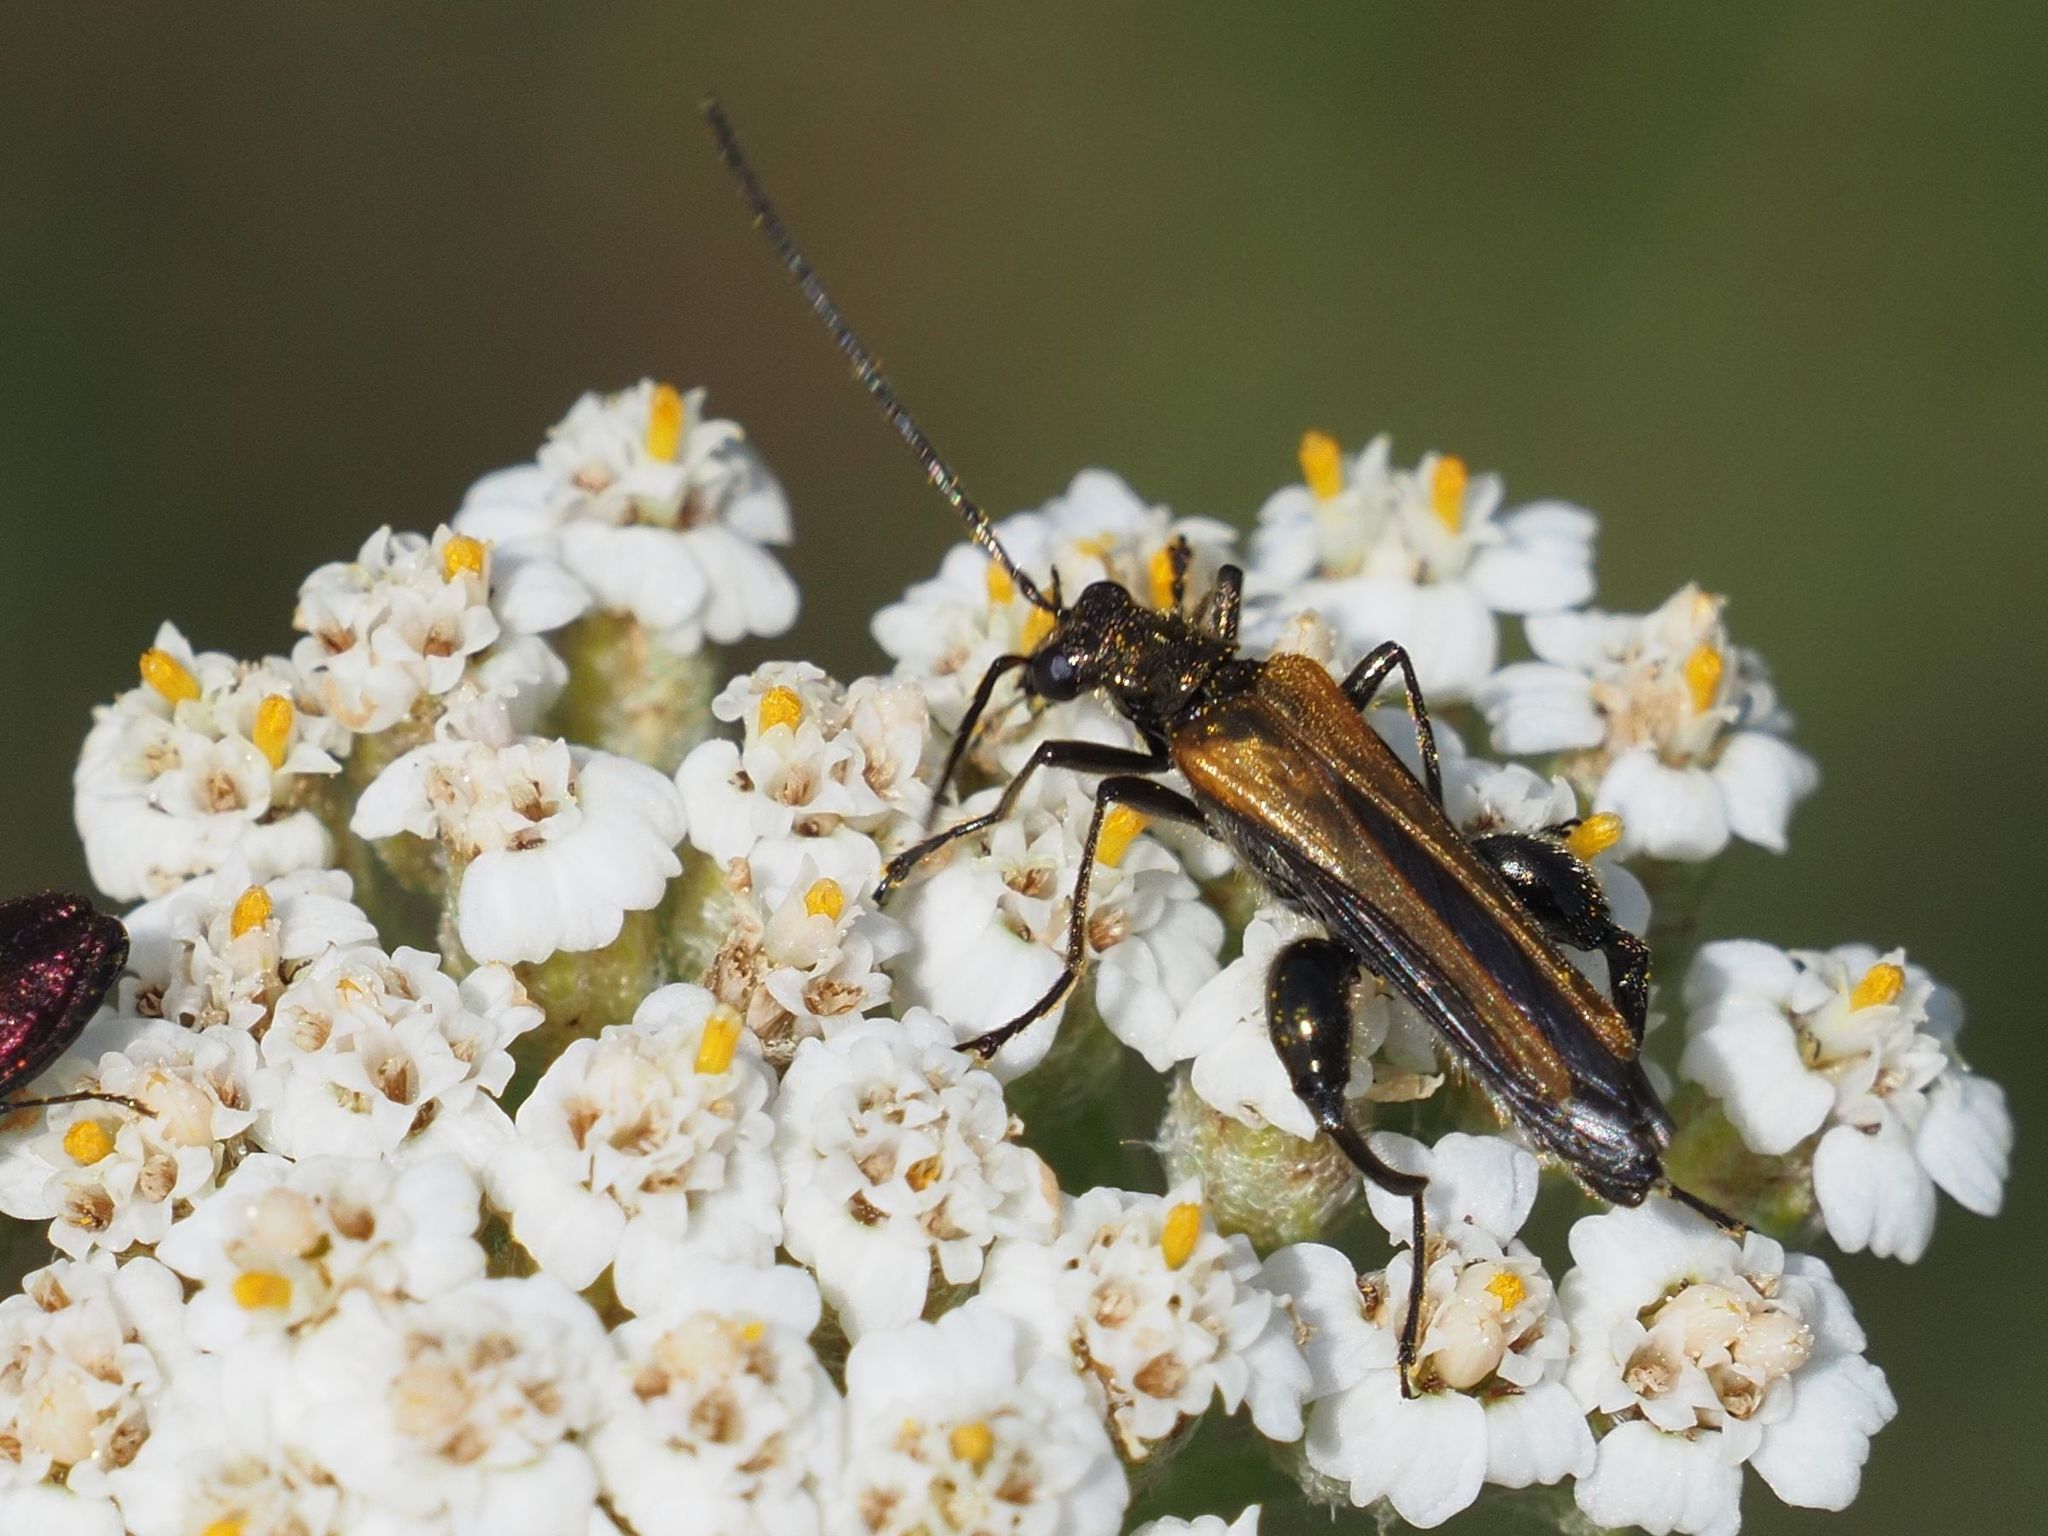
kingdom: Animalia
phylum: Arthropoda
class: Insecta
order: Coleoptera
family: Oedemeridae
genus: Oedemera
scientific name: Oedemera femorata
